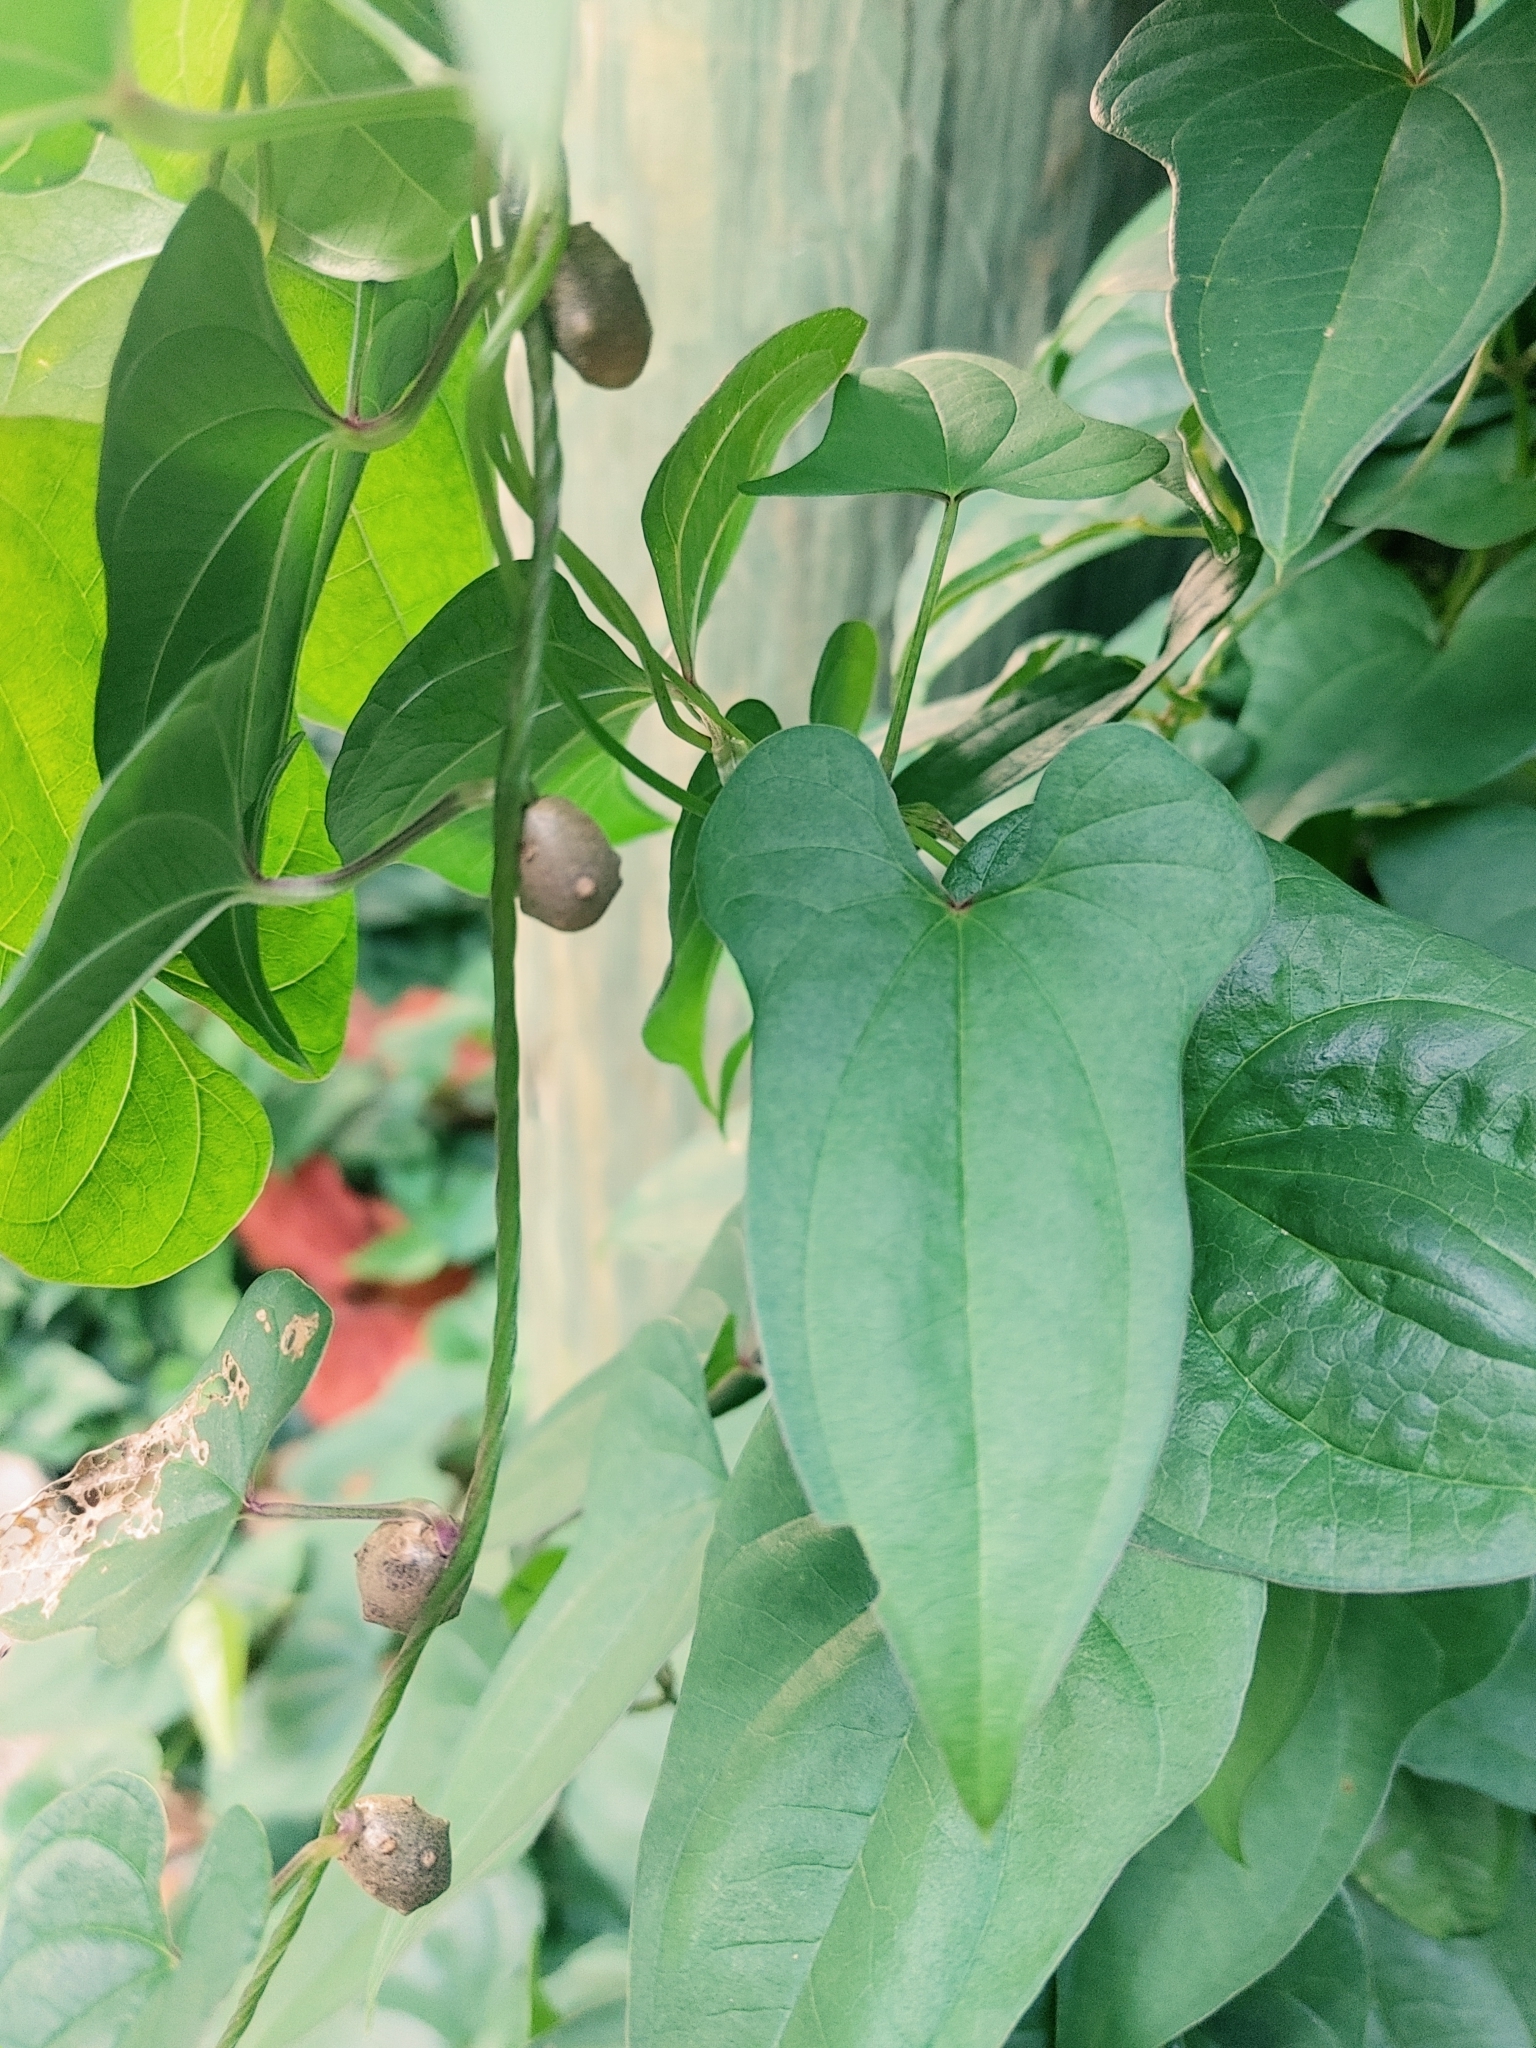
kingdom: Plantae
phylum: Tracheophyta
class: Liliopsida
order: Dioscoreales
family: Dioscoreaceae
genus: Dioscorea
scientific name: Dioscorea polystachya
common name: Chinese yam
